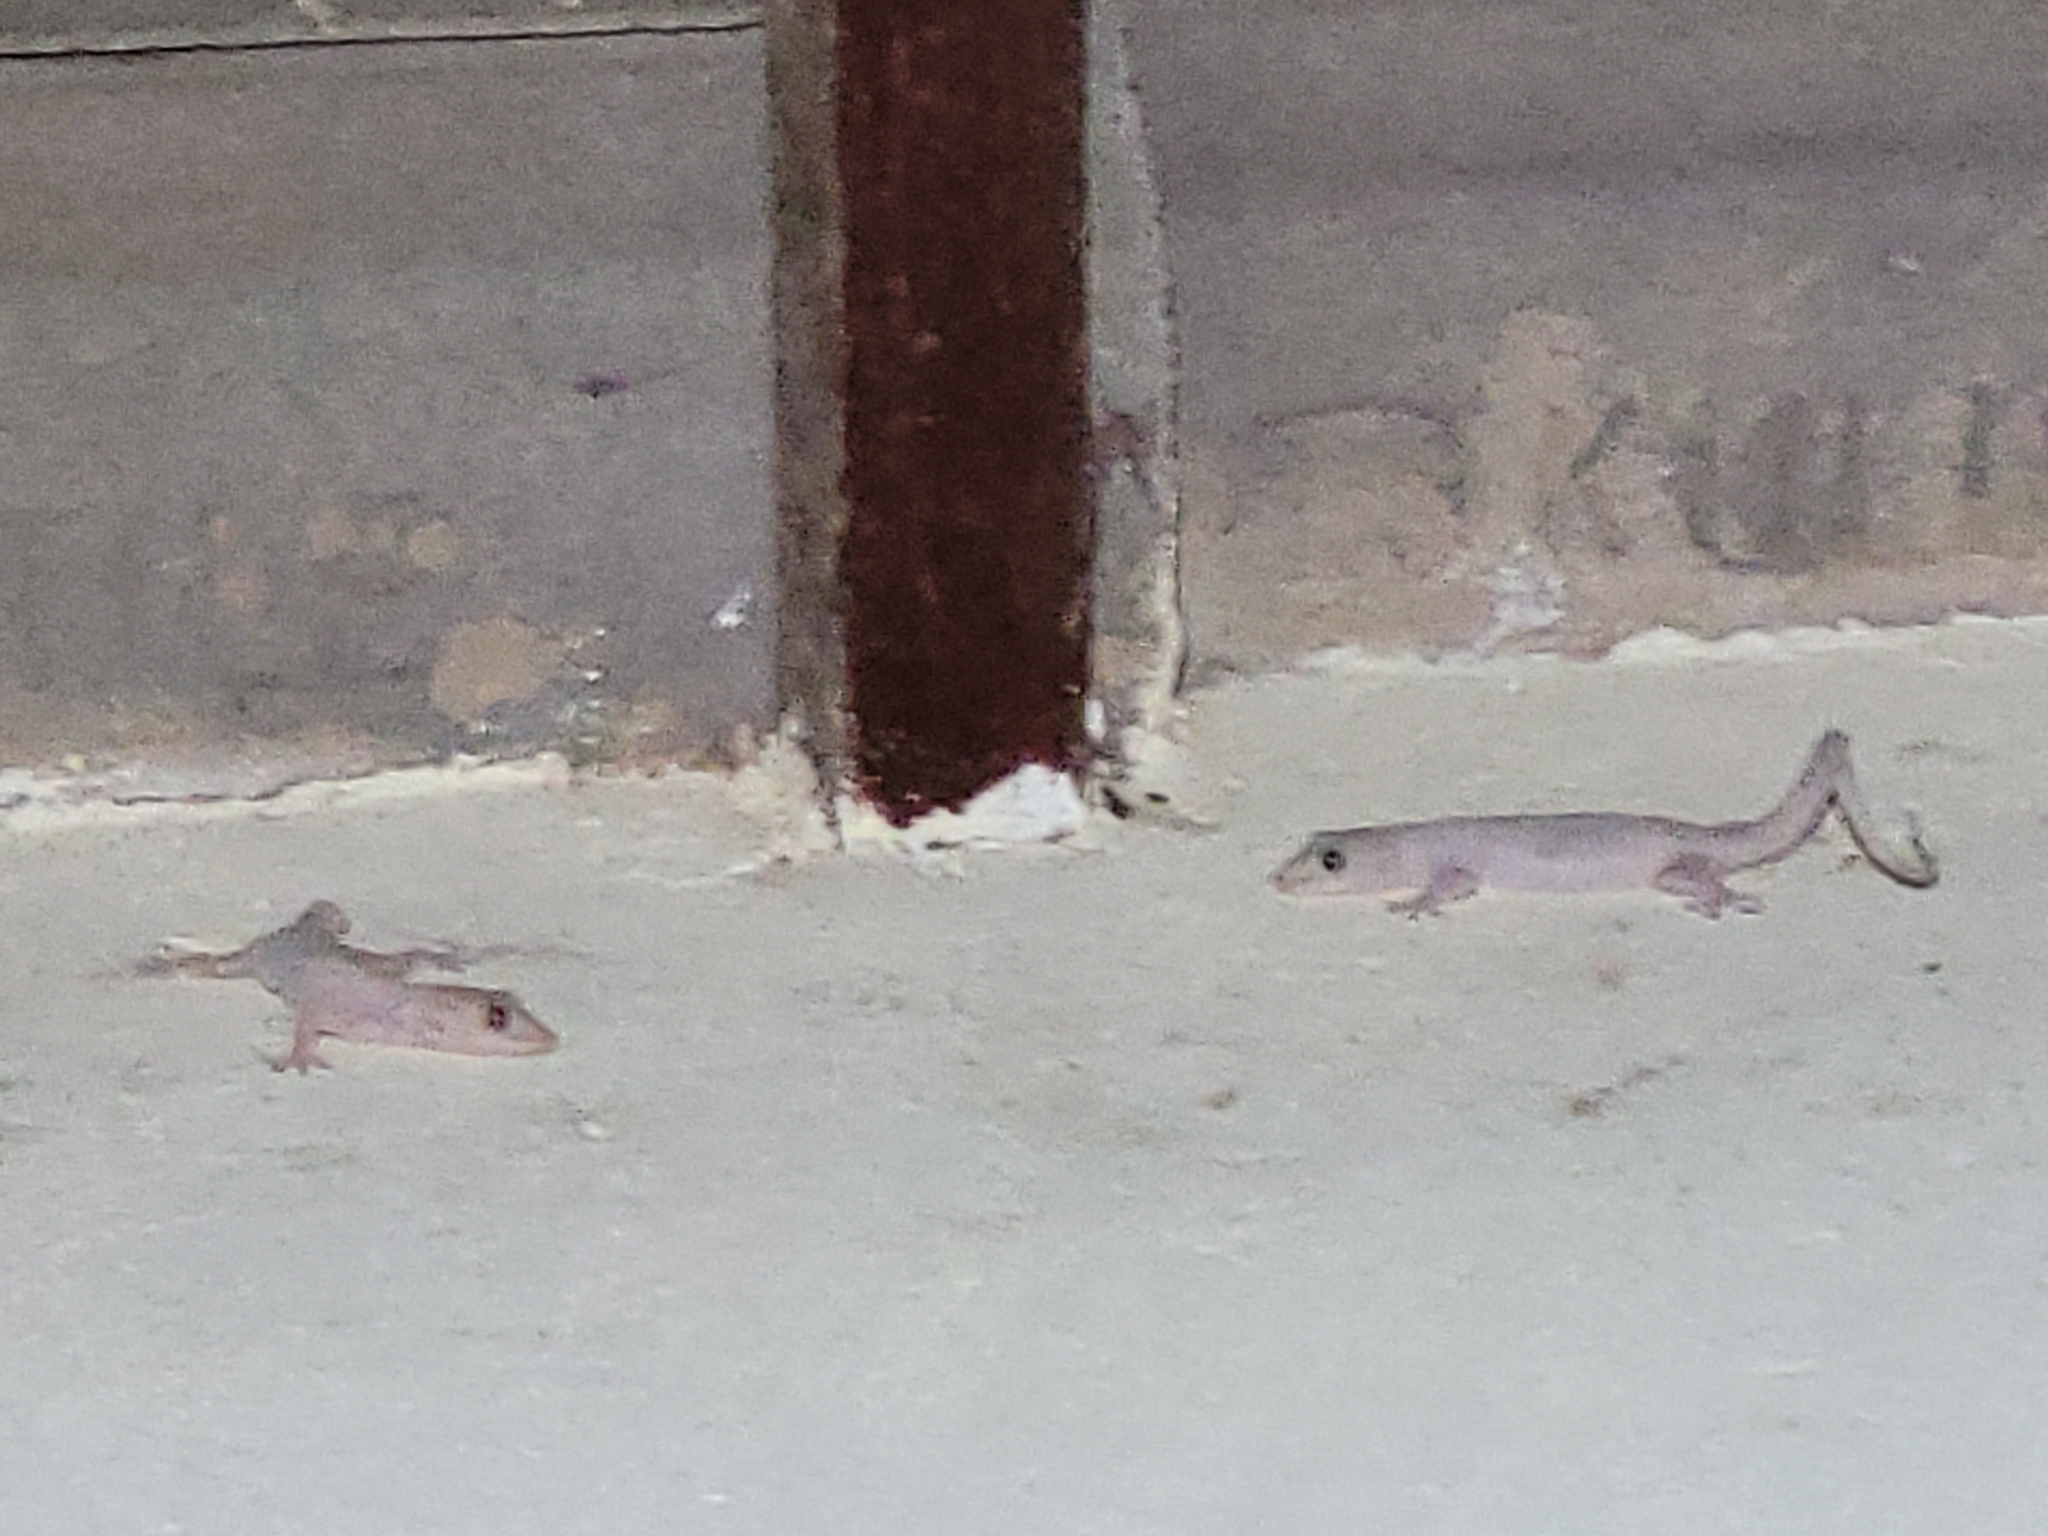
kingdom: Animalia
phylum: Chordata
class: Squamata
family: Gekkonidae
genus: Hemidactylus
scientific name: Hemidactylus mabouia
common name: House gecko
